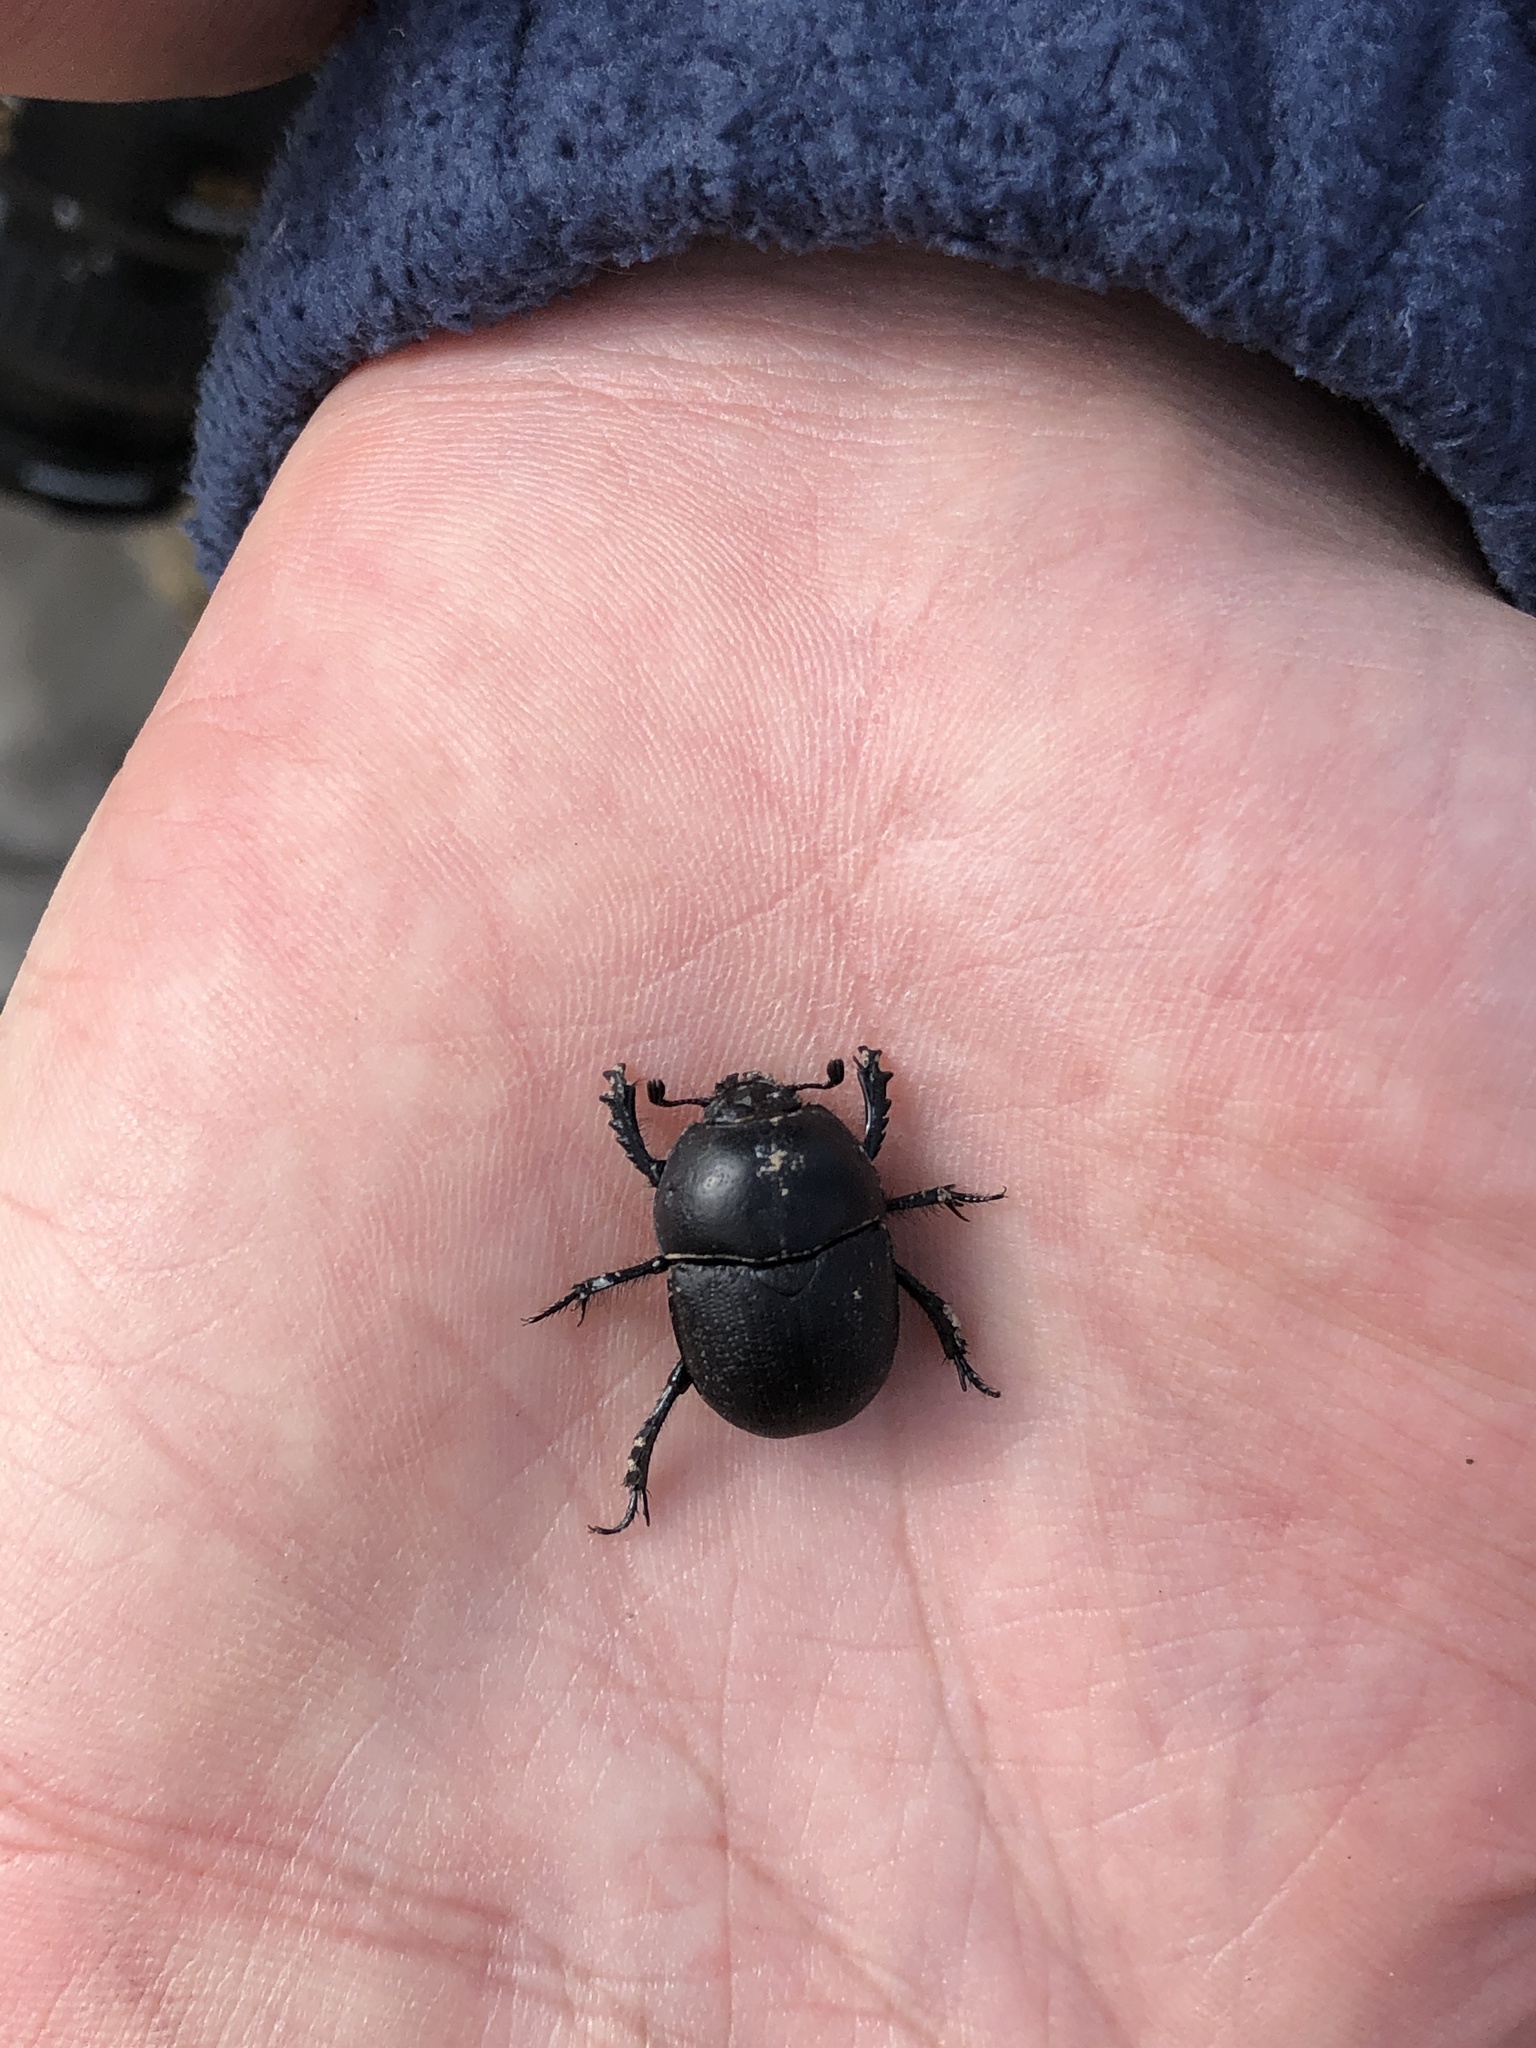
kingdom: Animalia
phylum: Arthropoda
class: Insecta
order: Coleoptera
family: Geotrupidae
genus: Geohowdenius
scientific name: Geohowdenius opacus
